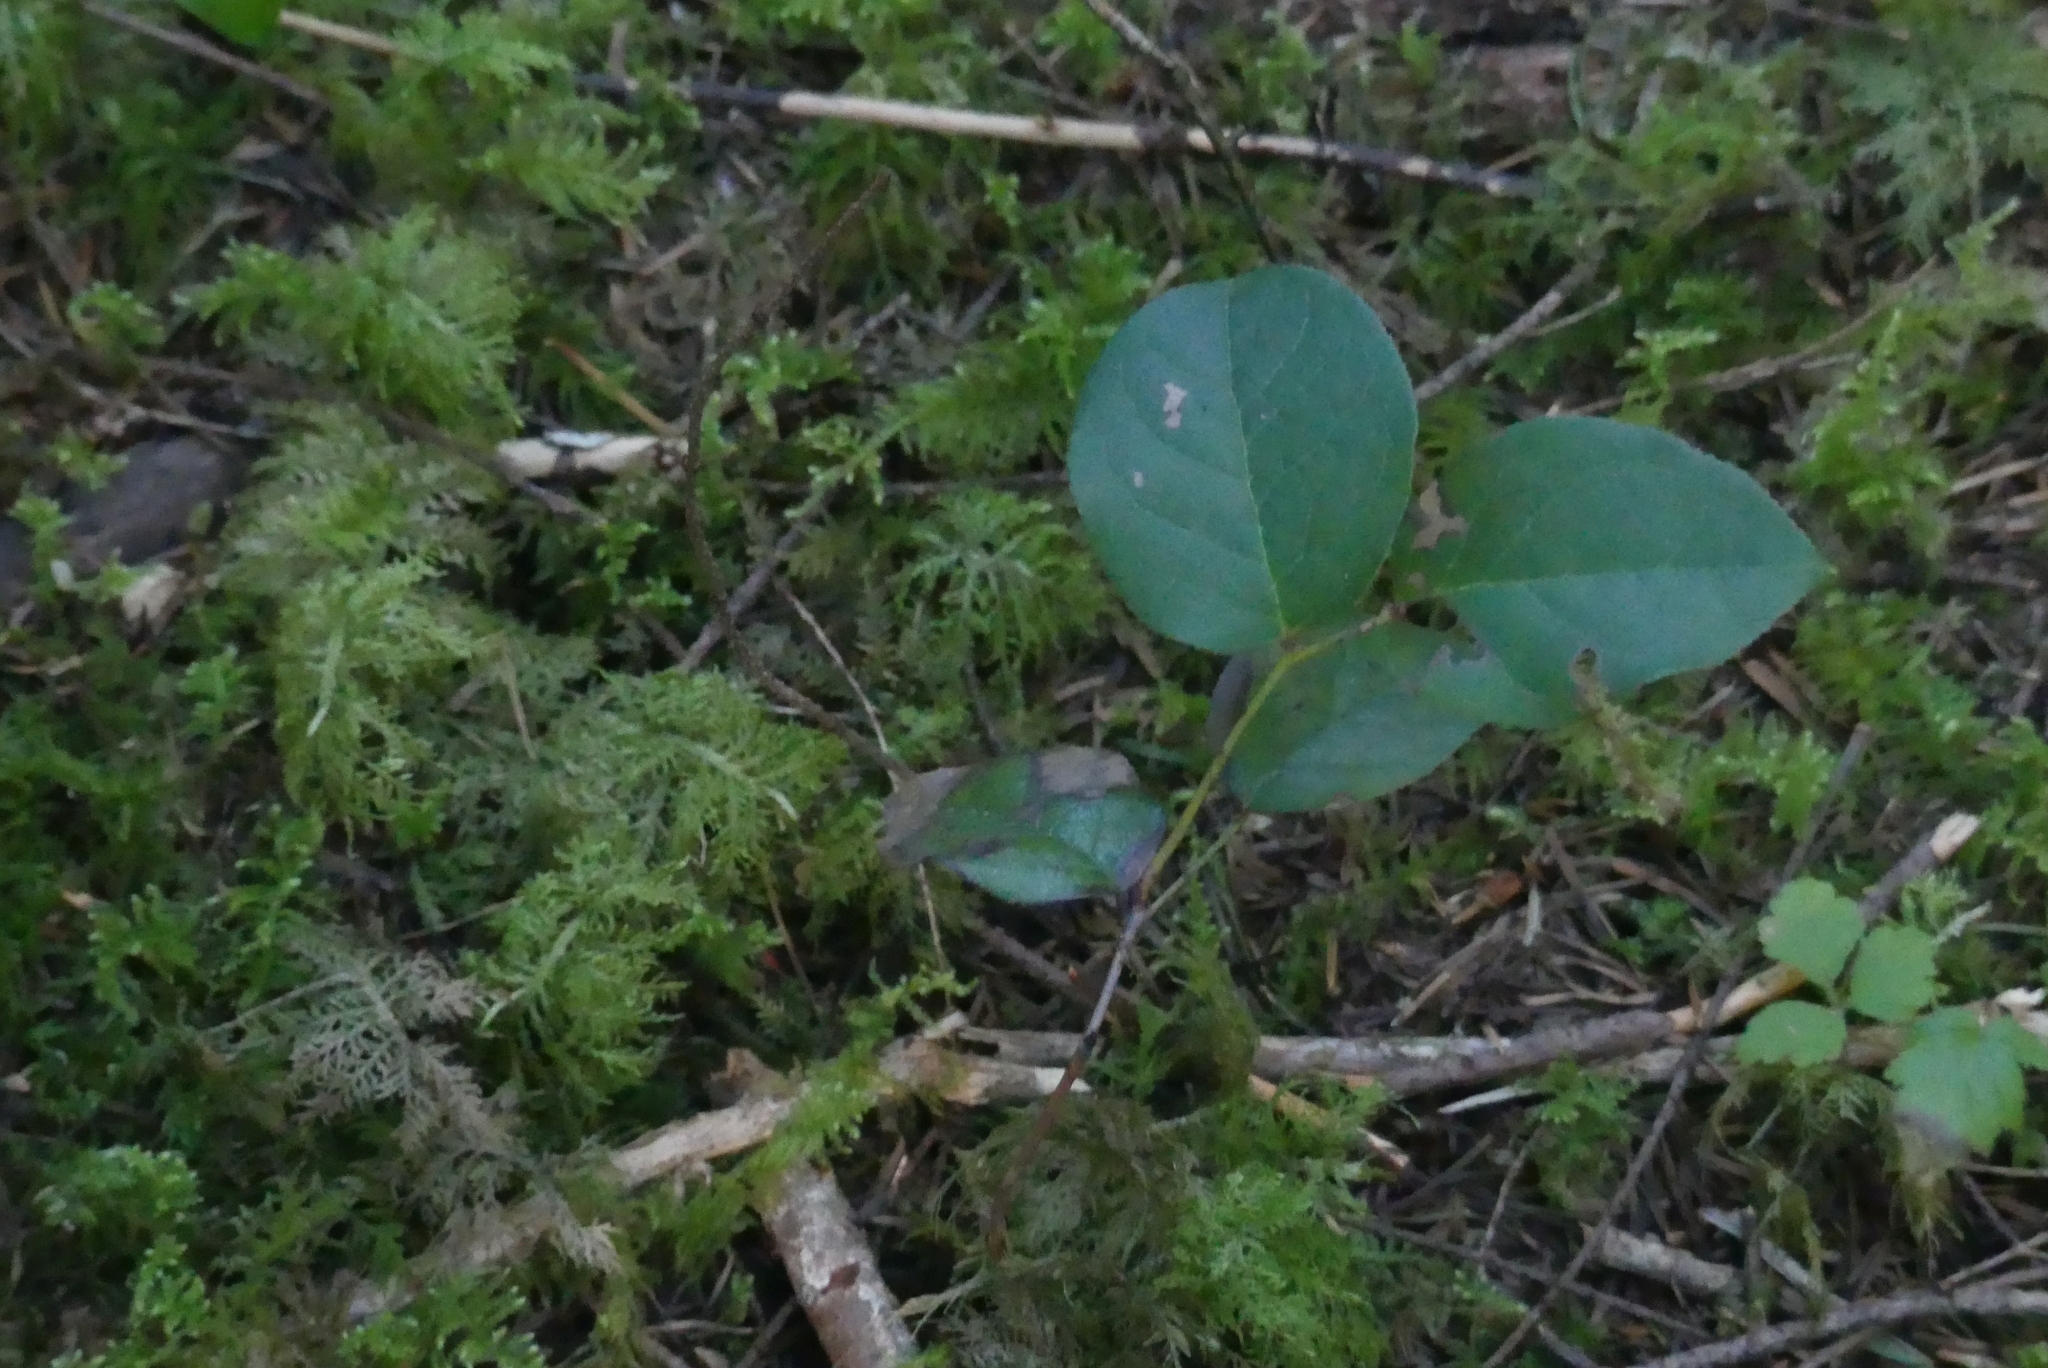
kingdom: Plantae
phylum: Tracheophyta
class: Magnoliopsida
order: Ericales
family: Ericaceae
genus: Gaultheria
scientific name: Gaultheria shallon
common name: Shallon
